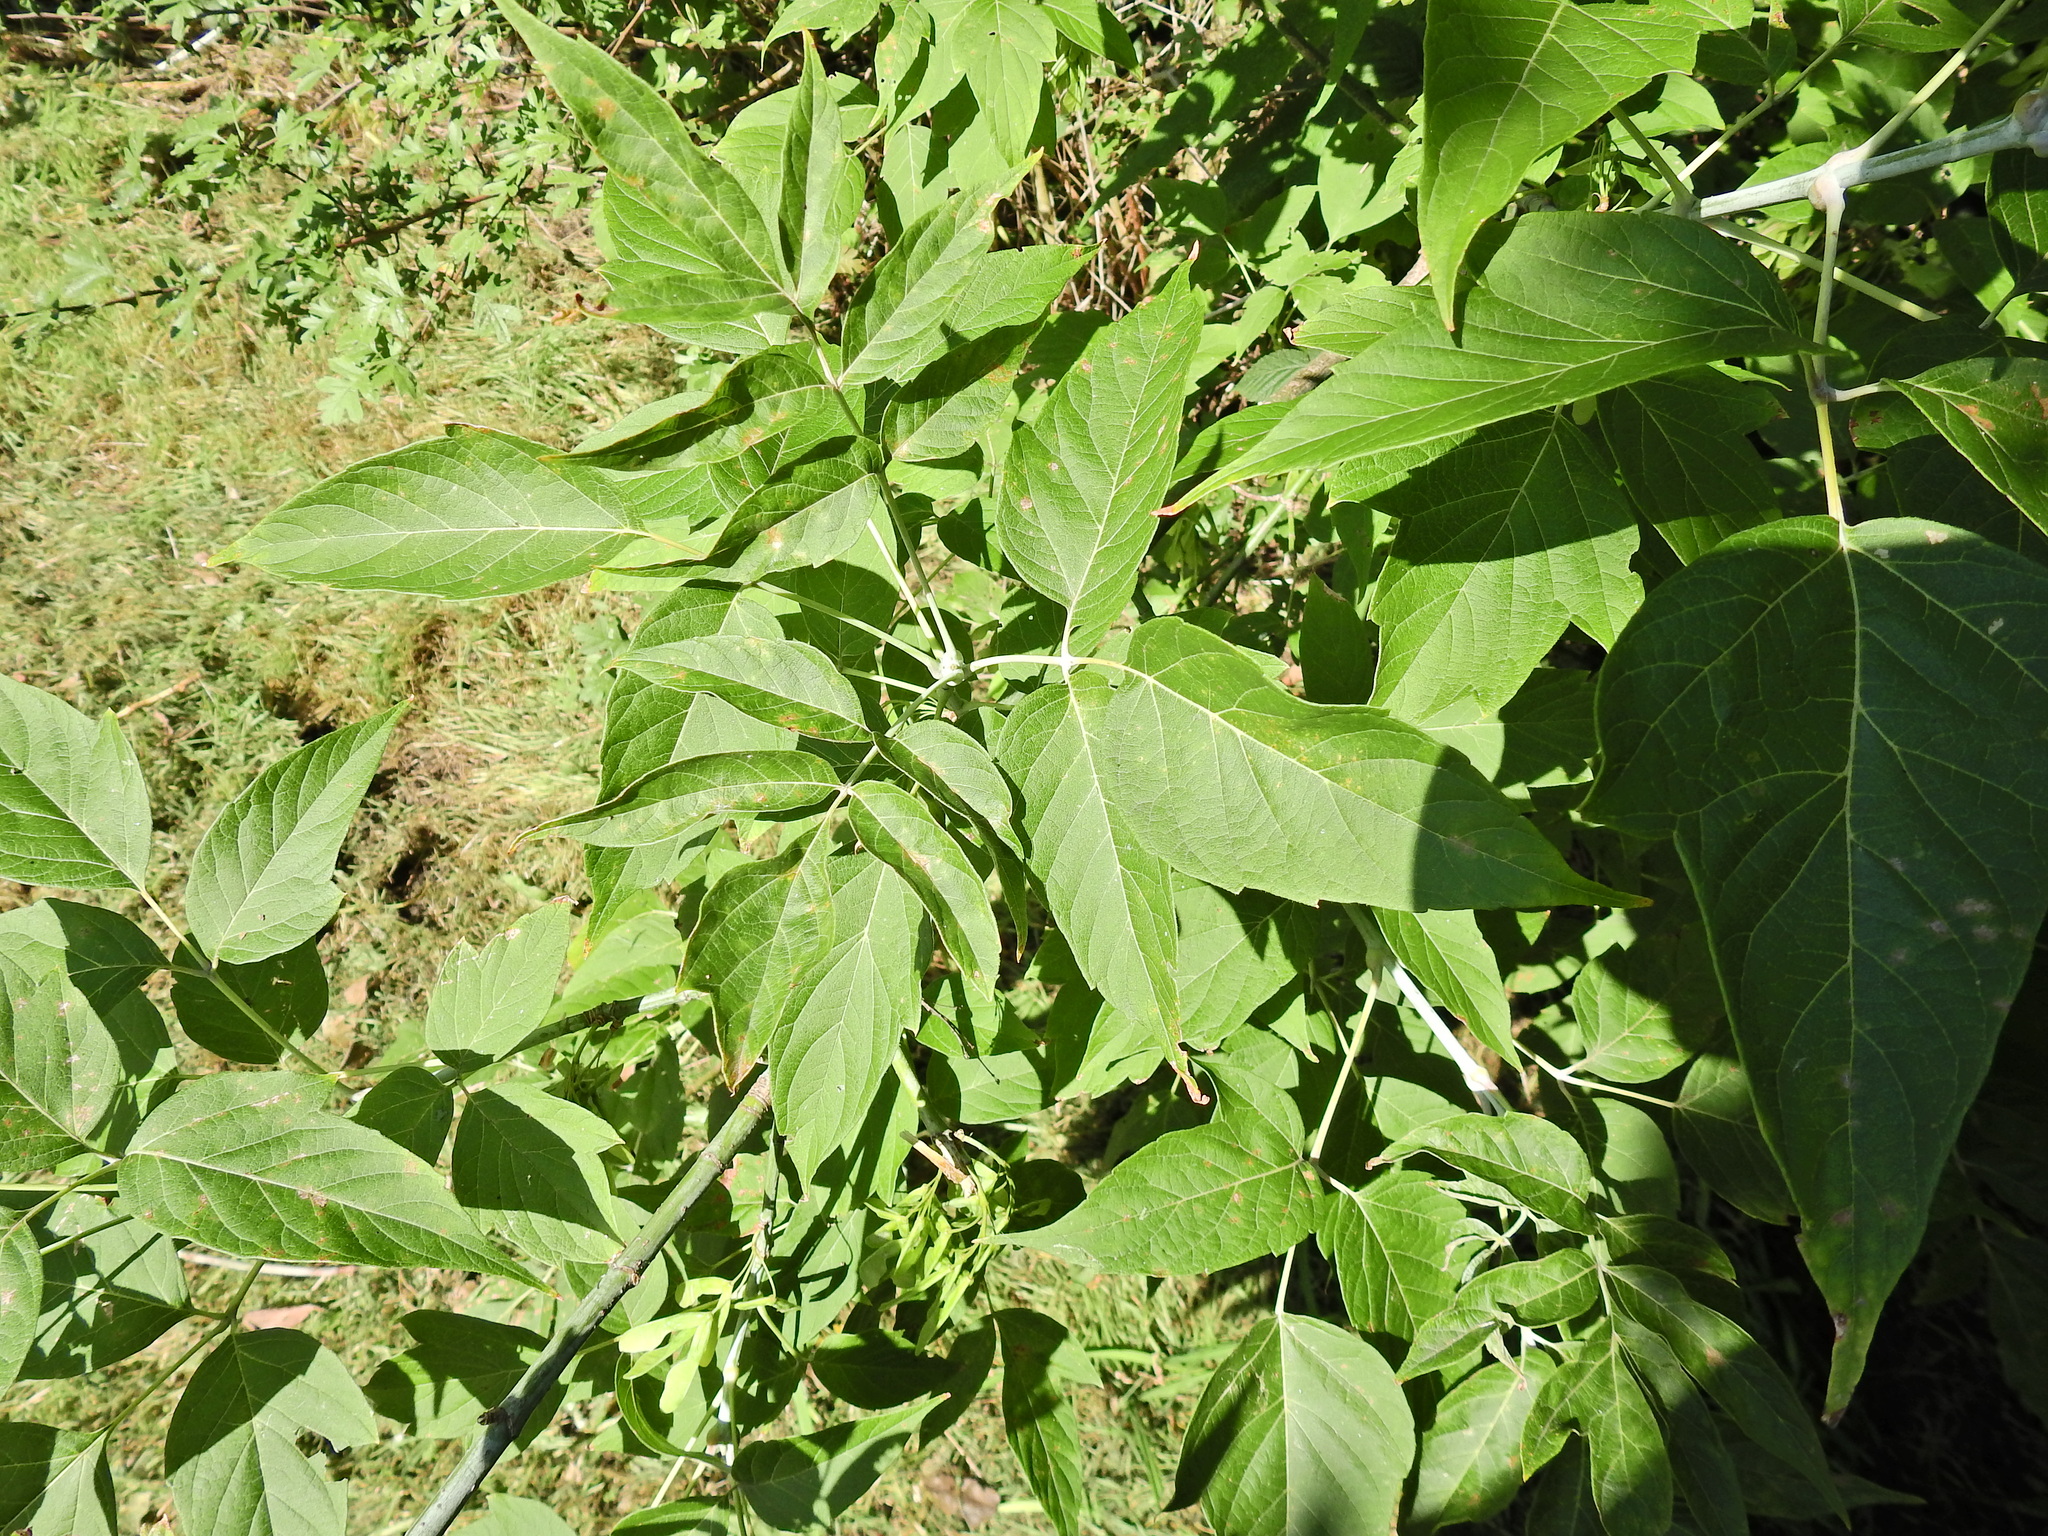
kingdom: Plantae
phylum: Tracheophyta
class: Magnoliopsida
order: Sapindales
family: Sapindaceae
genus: Acer
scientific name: Acer negundo
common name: Ashleaf maple
